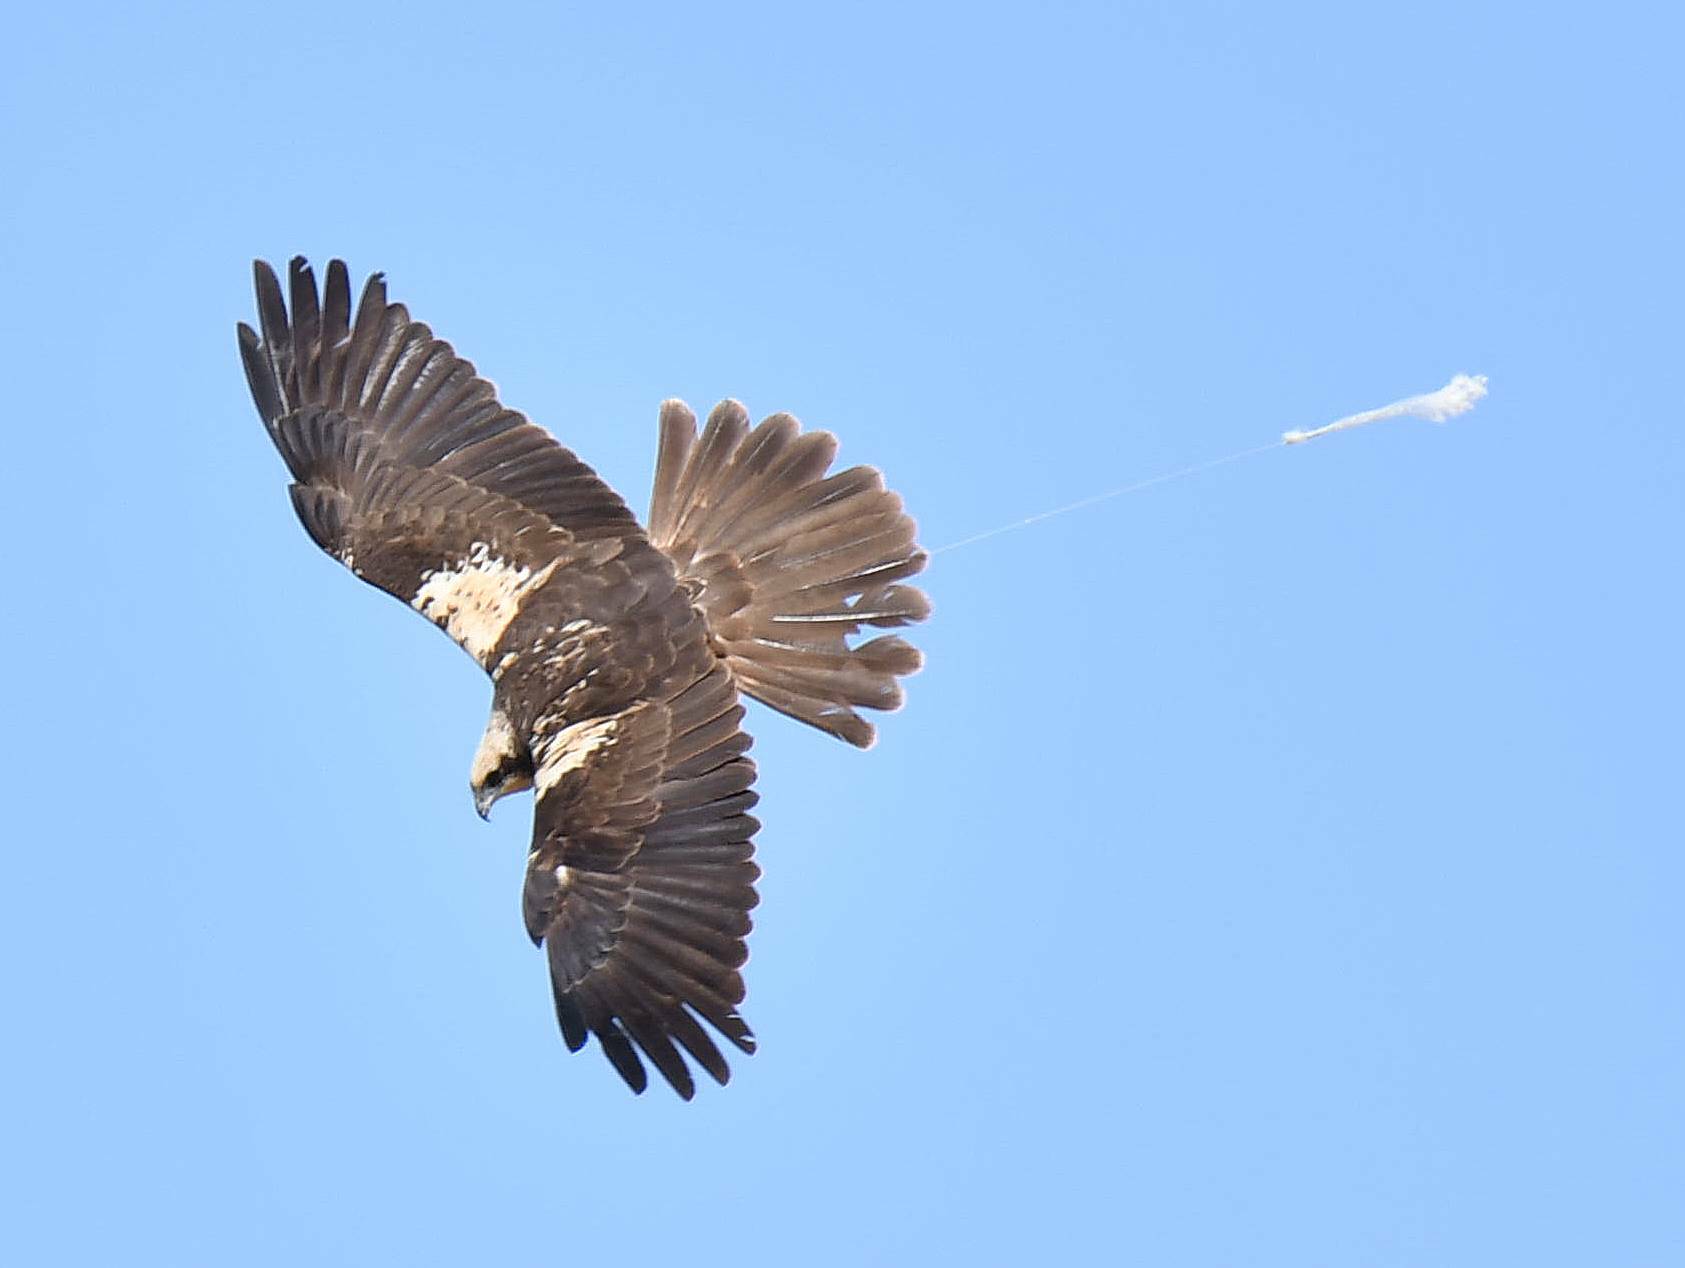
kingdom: Animalia
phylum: Chordata
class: Aves
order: Accipitriformes
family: Accipitridae
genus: Circus
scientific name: Circus aeruginosus
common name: Western marsh harrier
